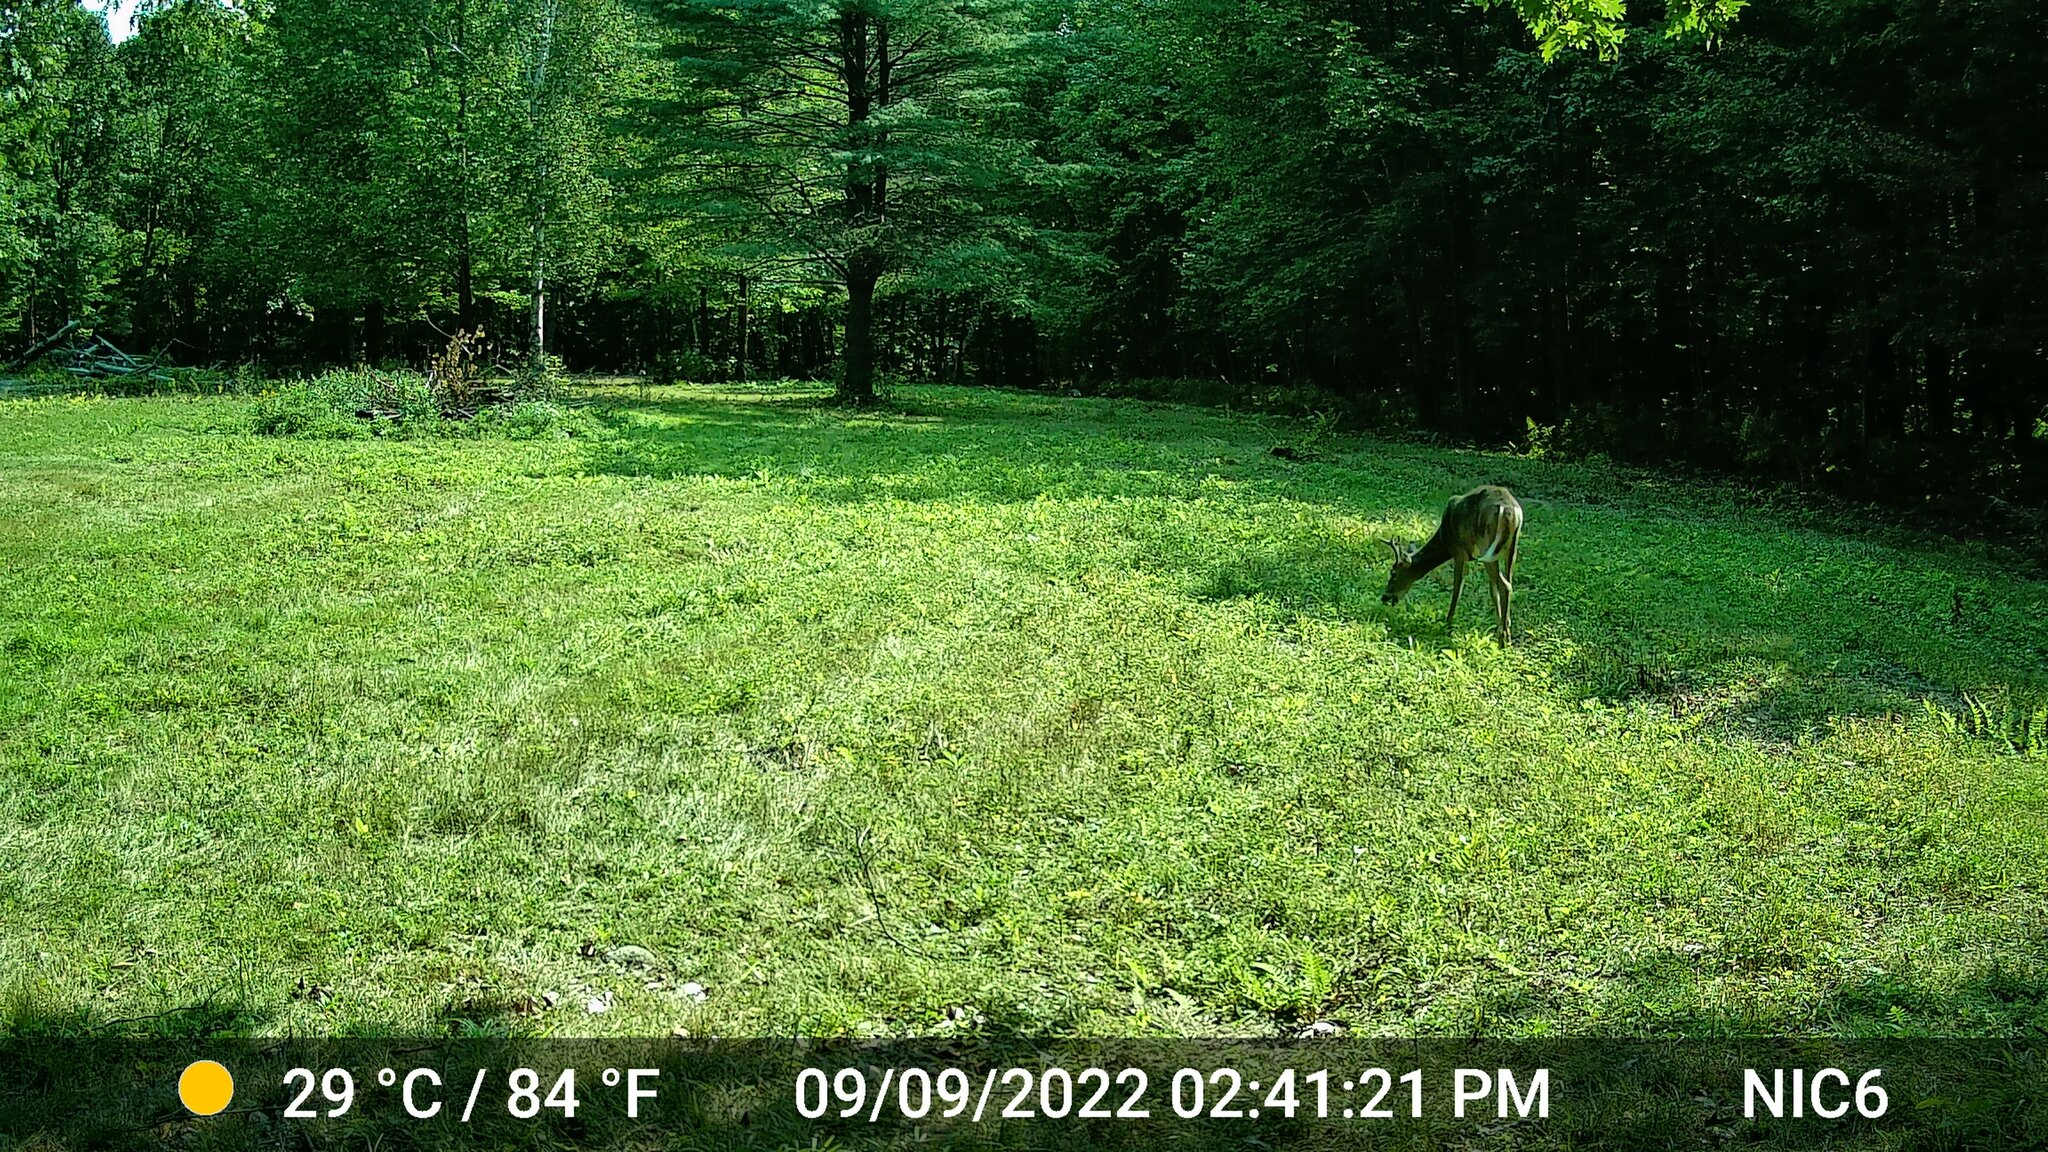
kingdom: Animalia
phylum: Chordata
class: Mammalia
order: Artiodactyla
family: Cervidae
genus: Odocoileus
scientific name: Odocoileus virginianus
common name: White-tailed deer
